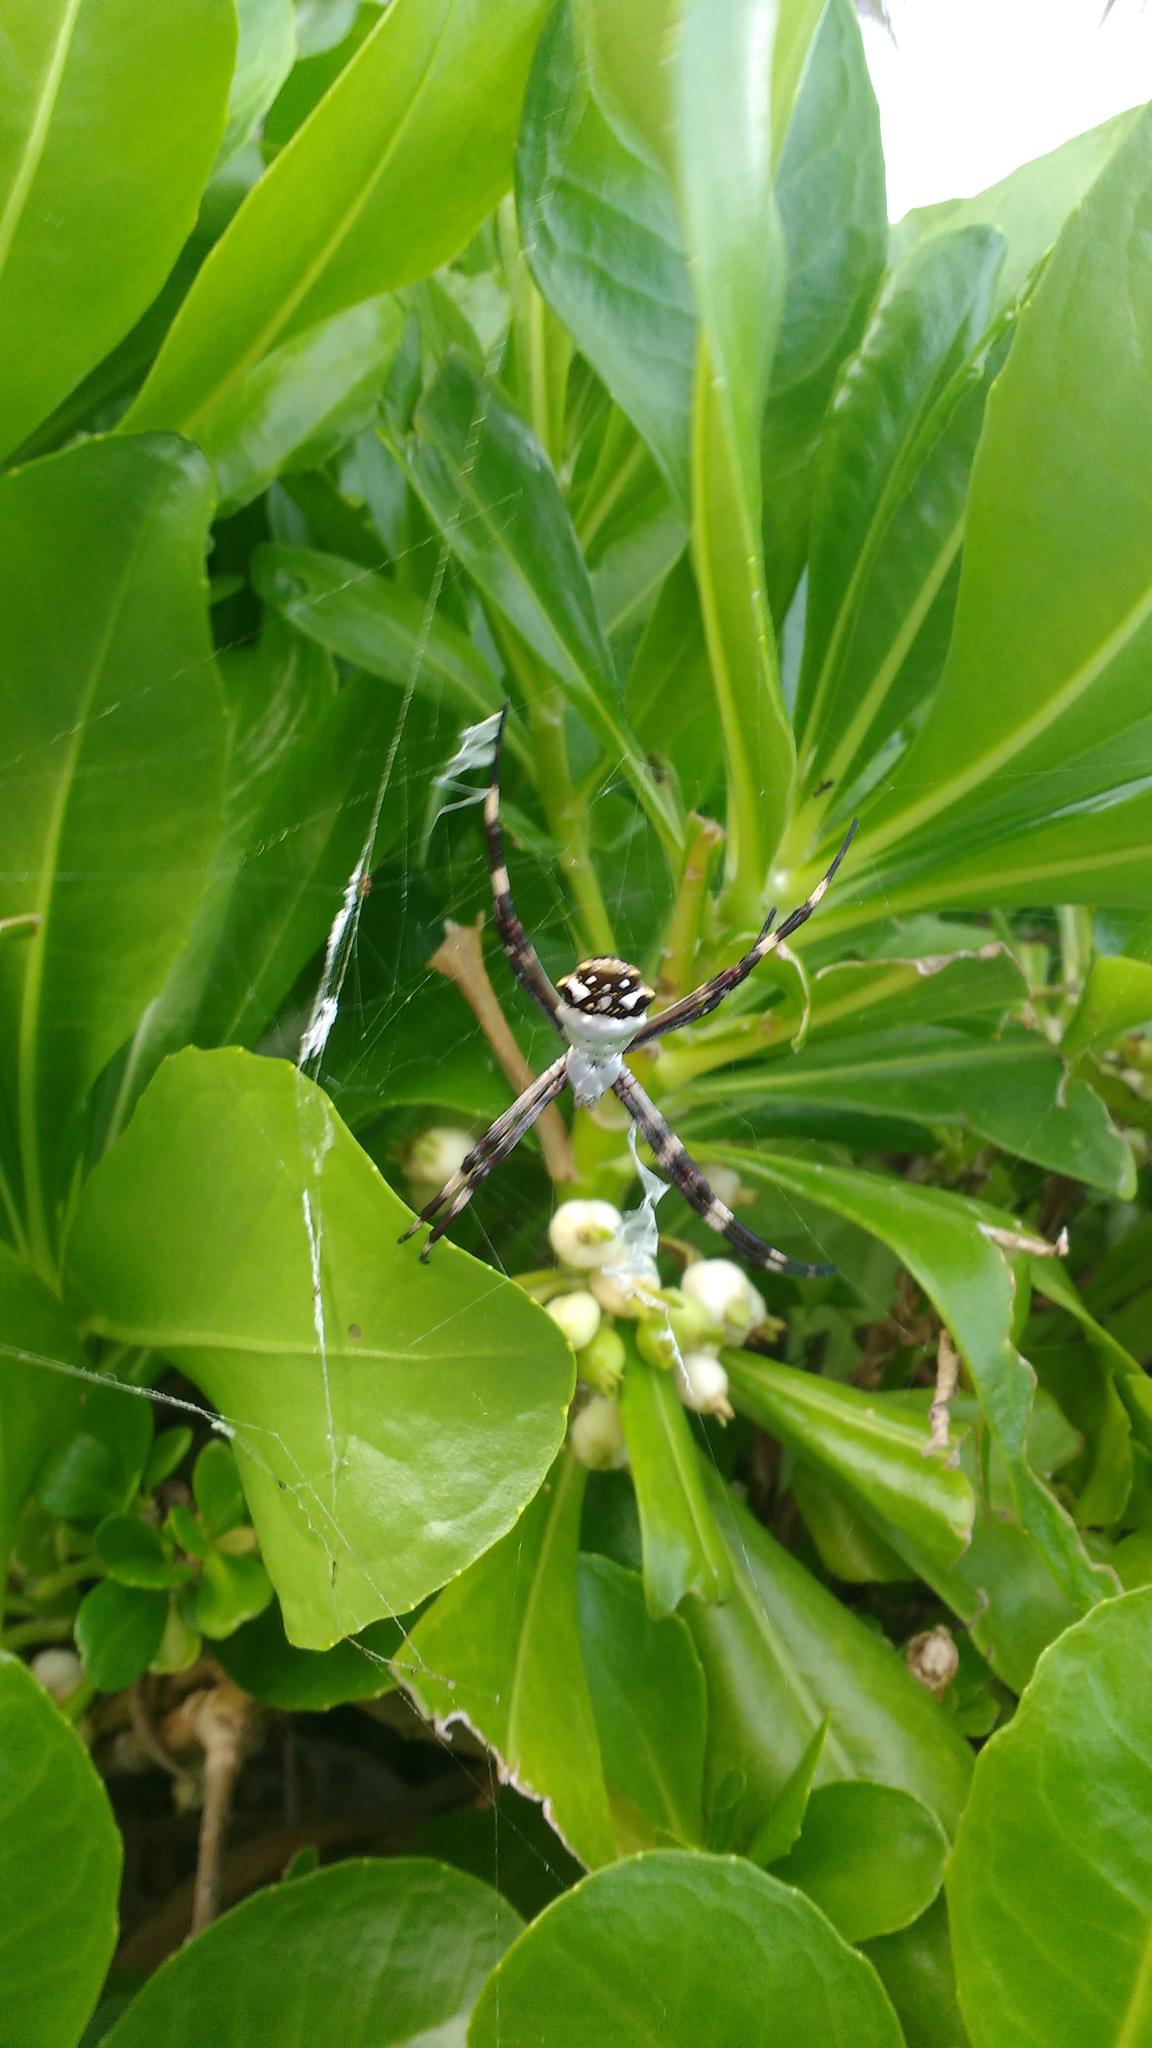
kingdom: Animalia
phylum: Arthropoda
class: Arachnida
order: Araneae
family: Araneidae
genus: Argiope
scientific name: Argiope argentata
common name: Orb weavers
